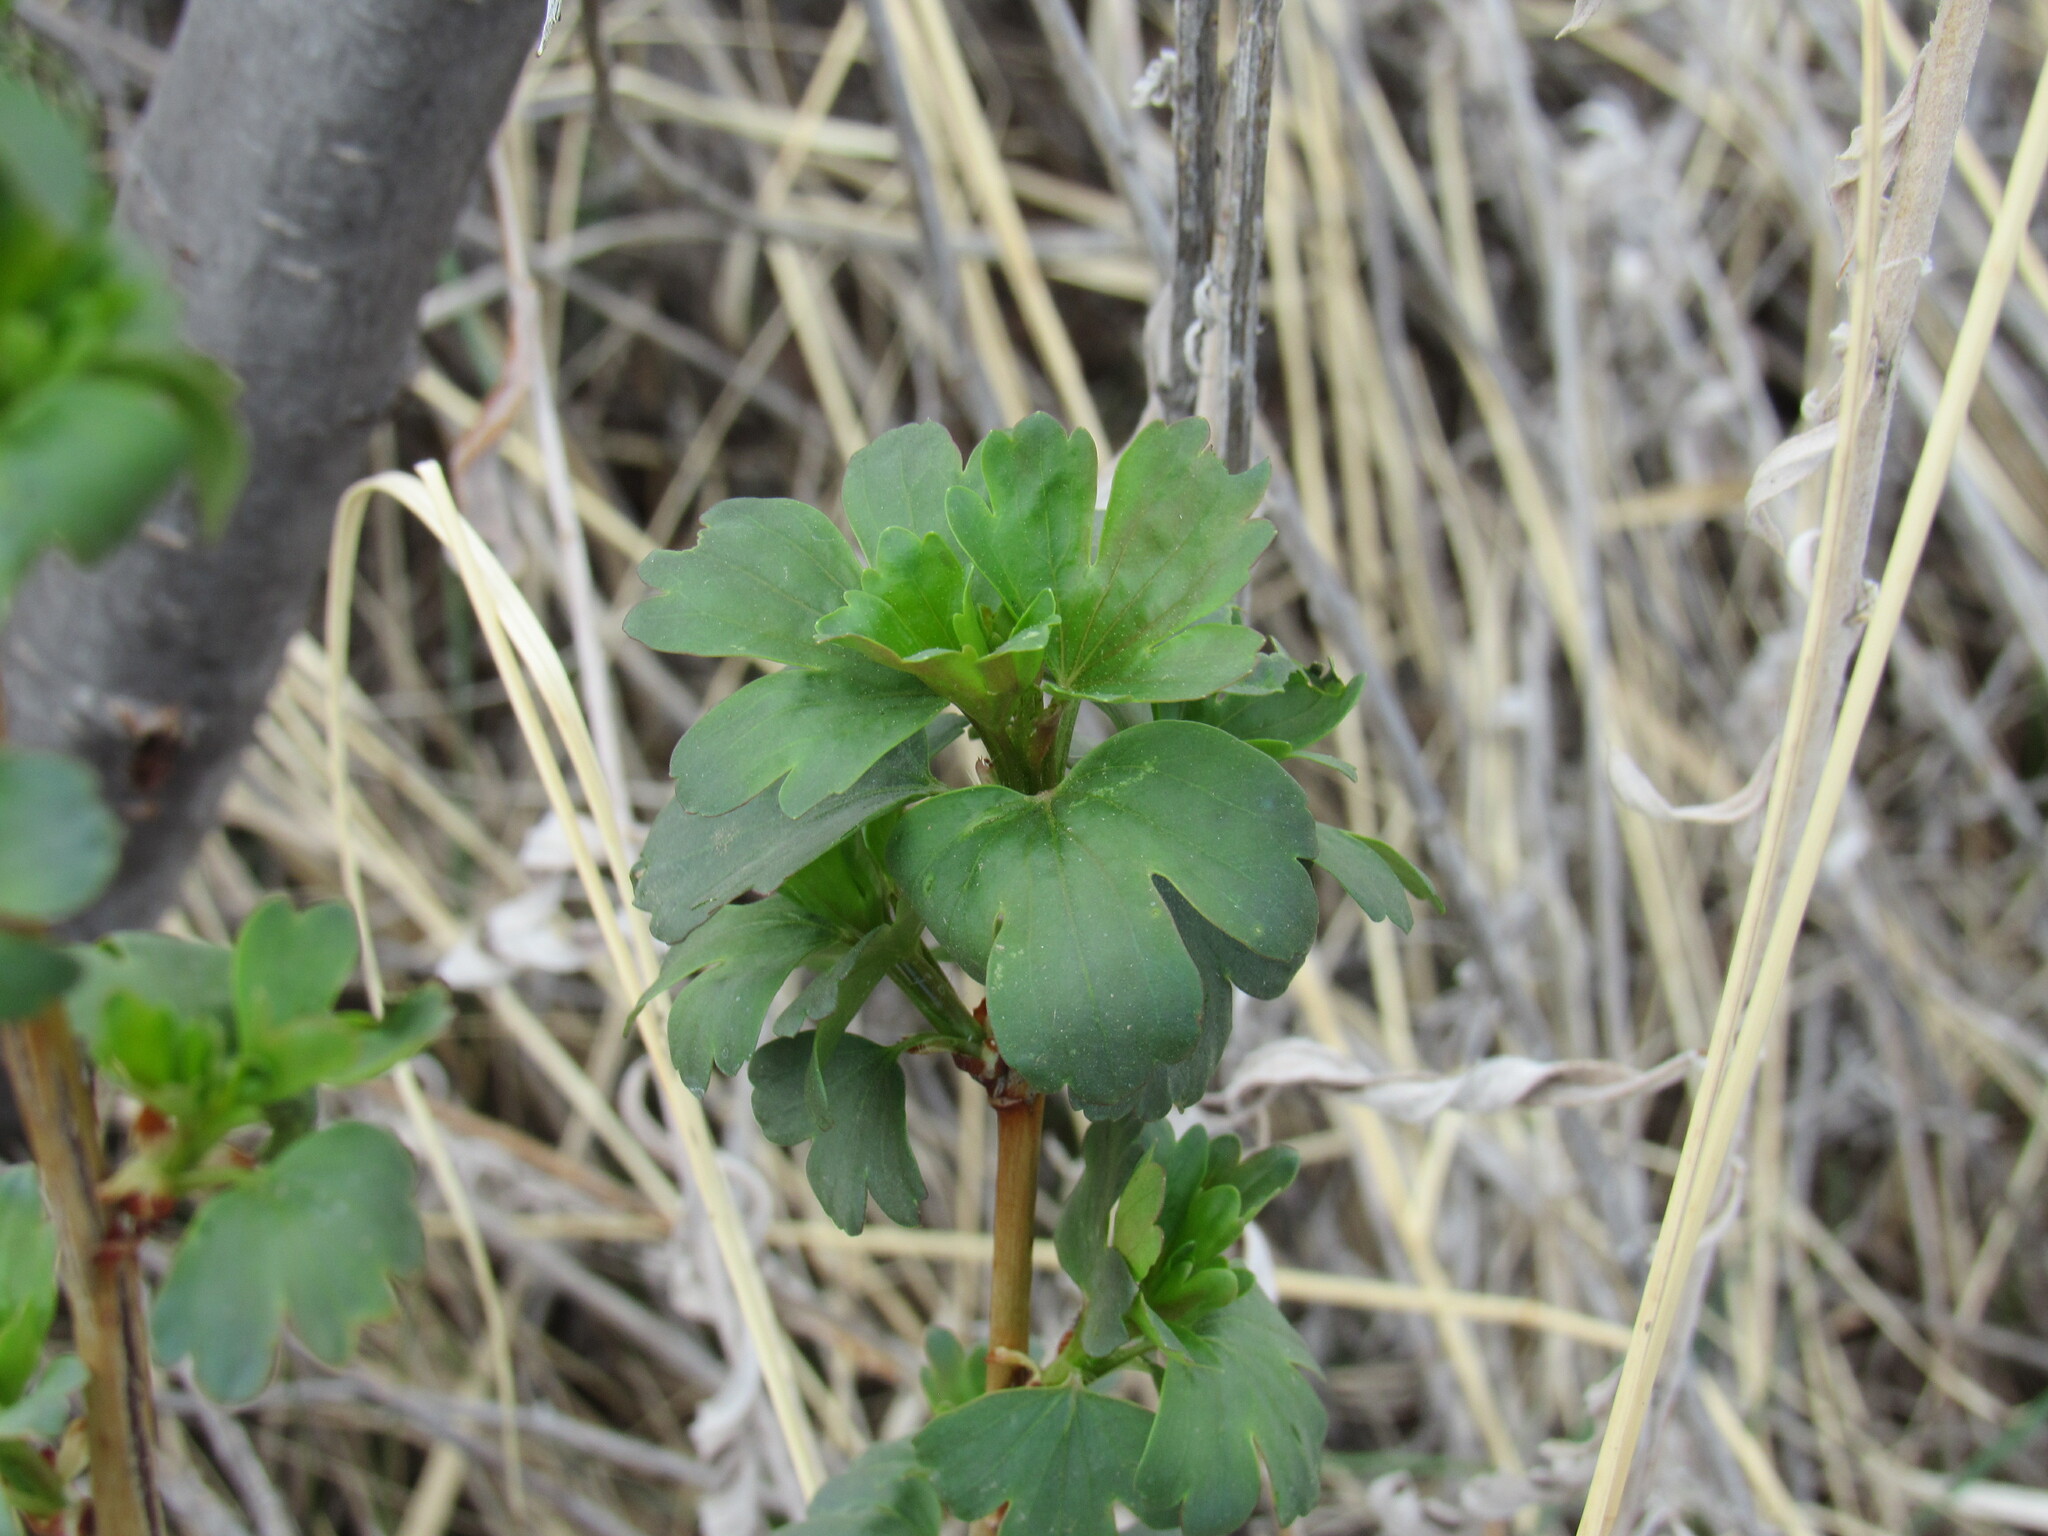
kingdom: Plantae
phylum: Tracheophyta
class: Magnoliopsida
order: Saxifragales
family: Grossulariaceae
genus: Ribes
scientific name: Ribes aureum
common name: Golden currant
